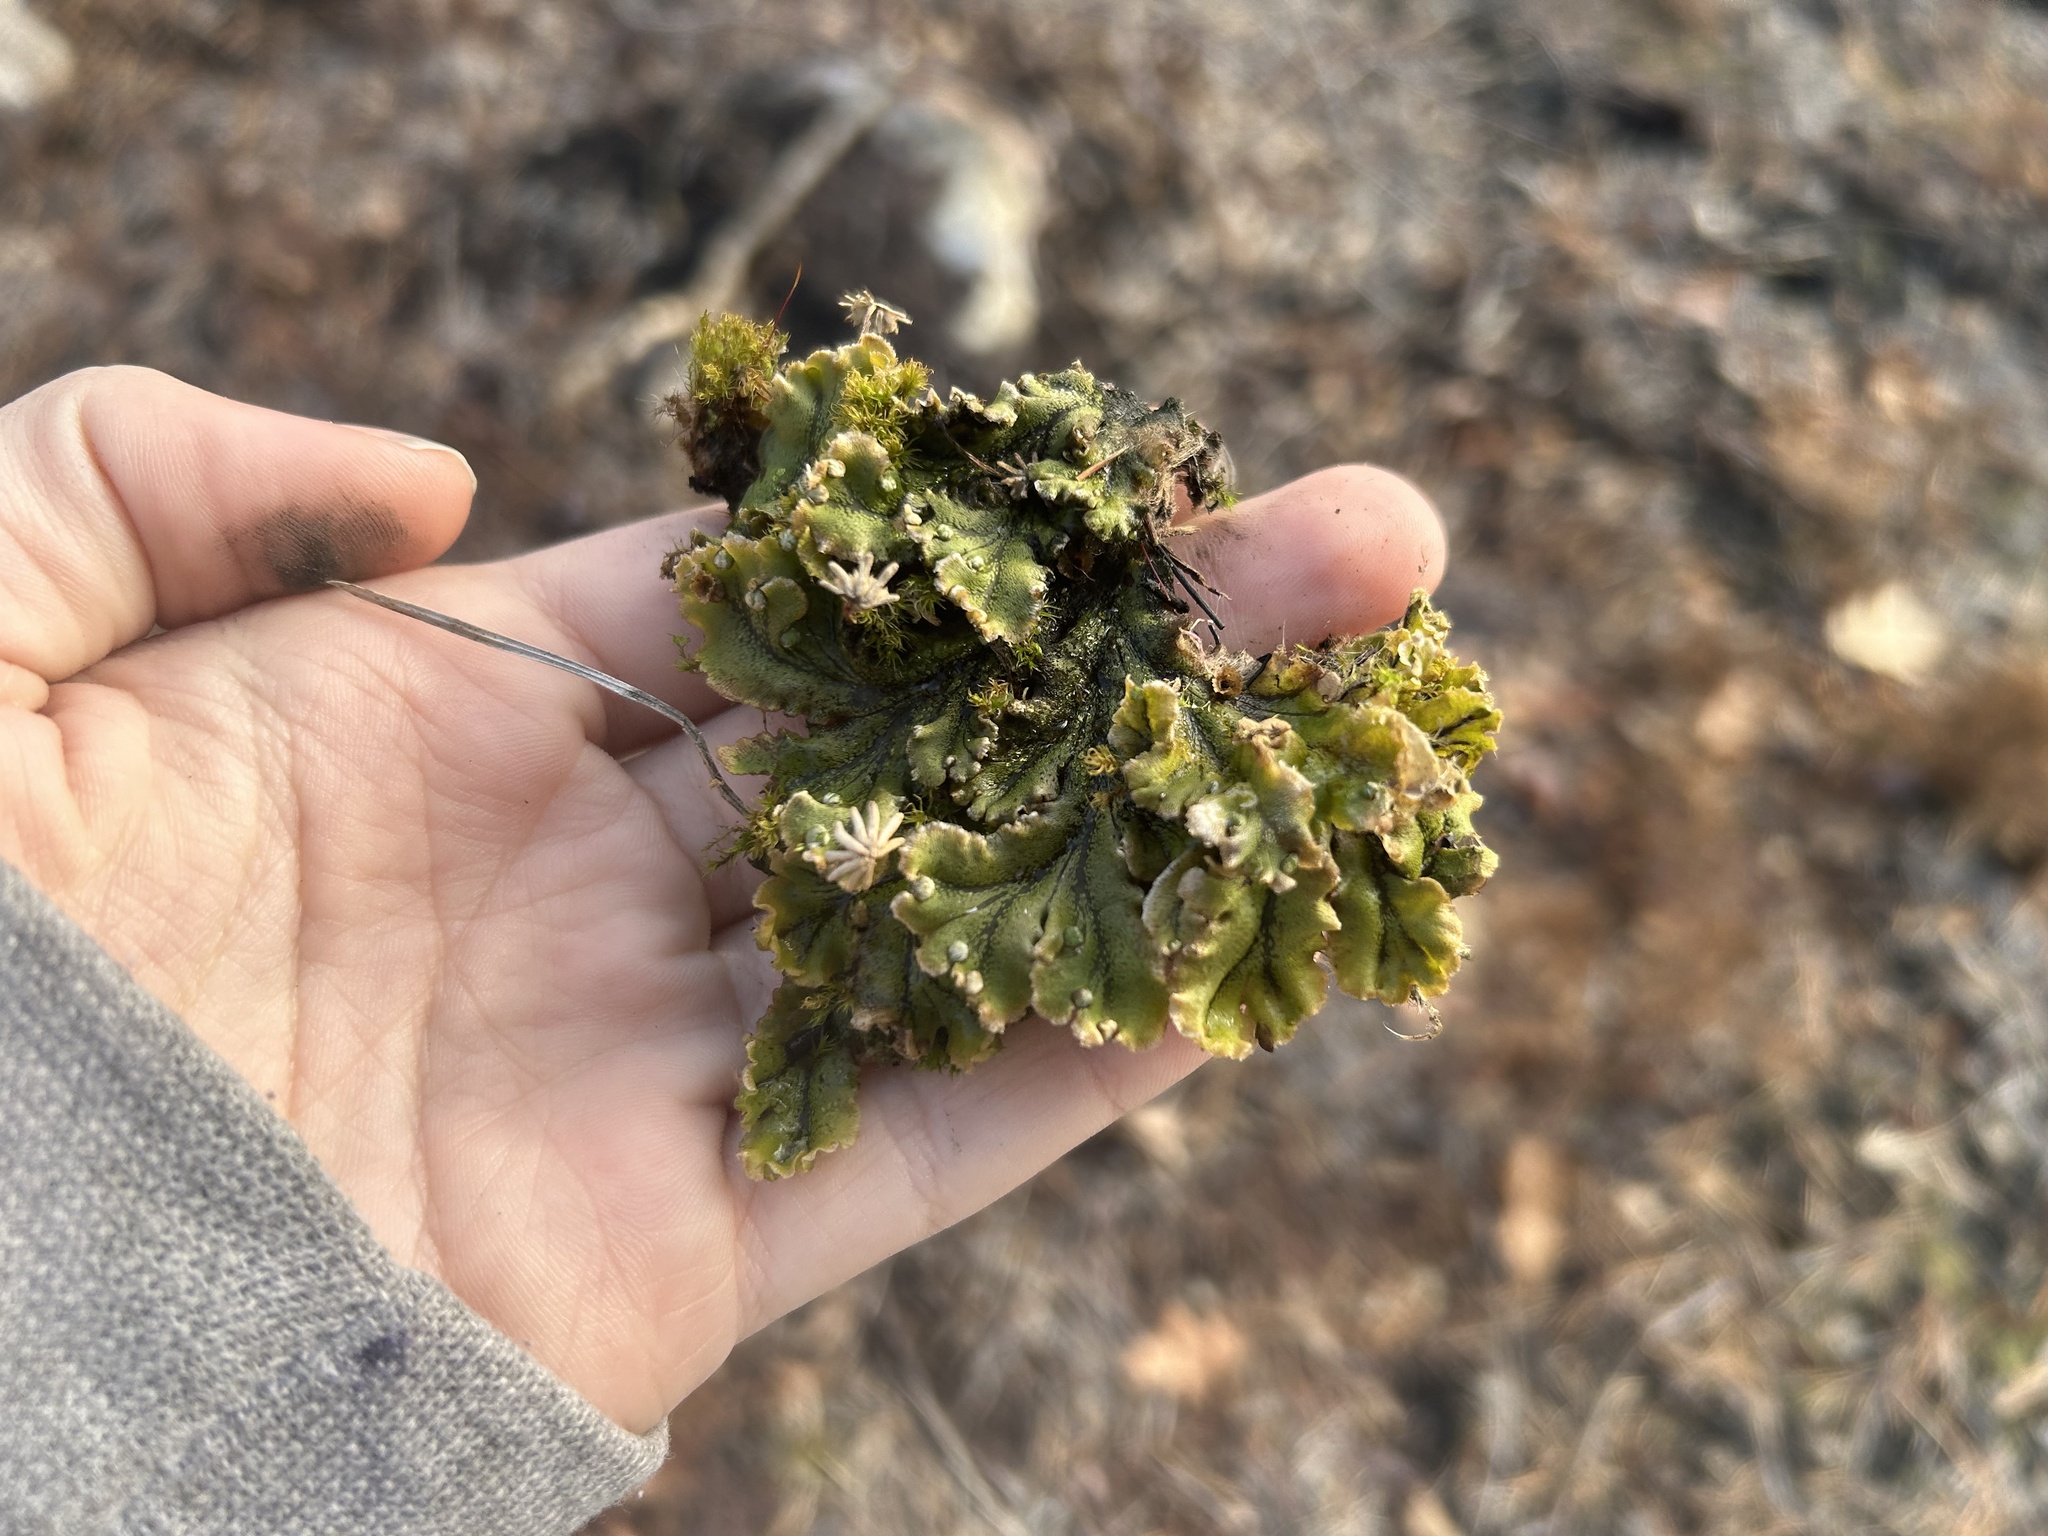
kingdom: Plantae
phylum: Marchantiophyta
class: Marchantiopsida
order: Marchantiales
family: Marchantiaceae
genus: Marchantia
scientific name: Marchantia polymorpha
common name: Common liverwort
